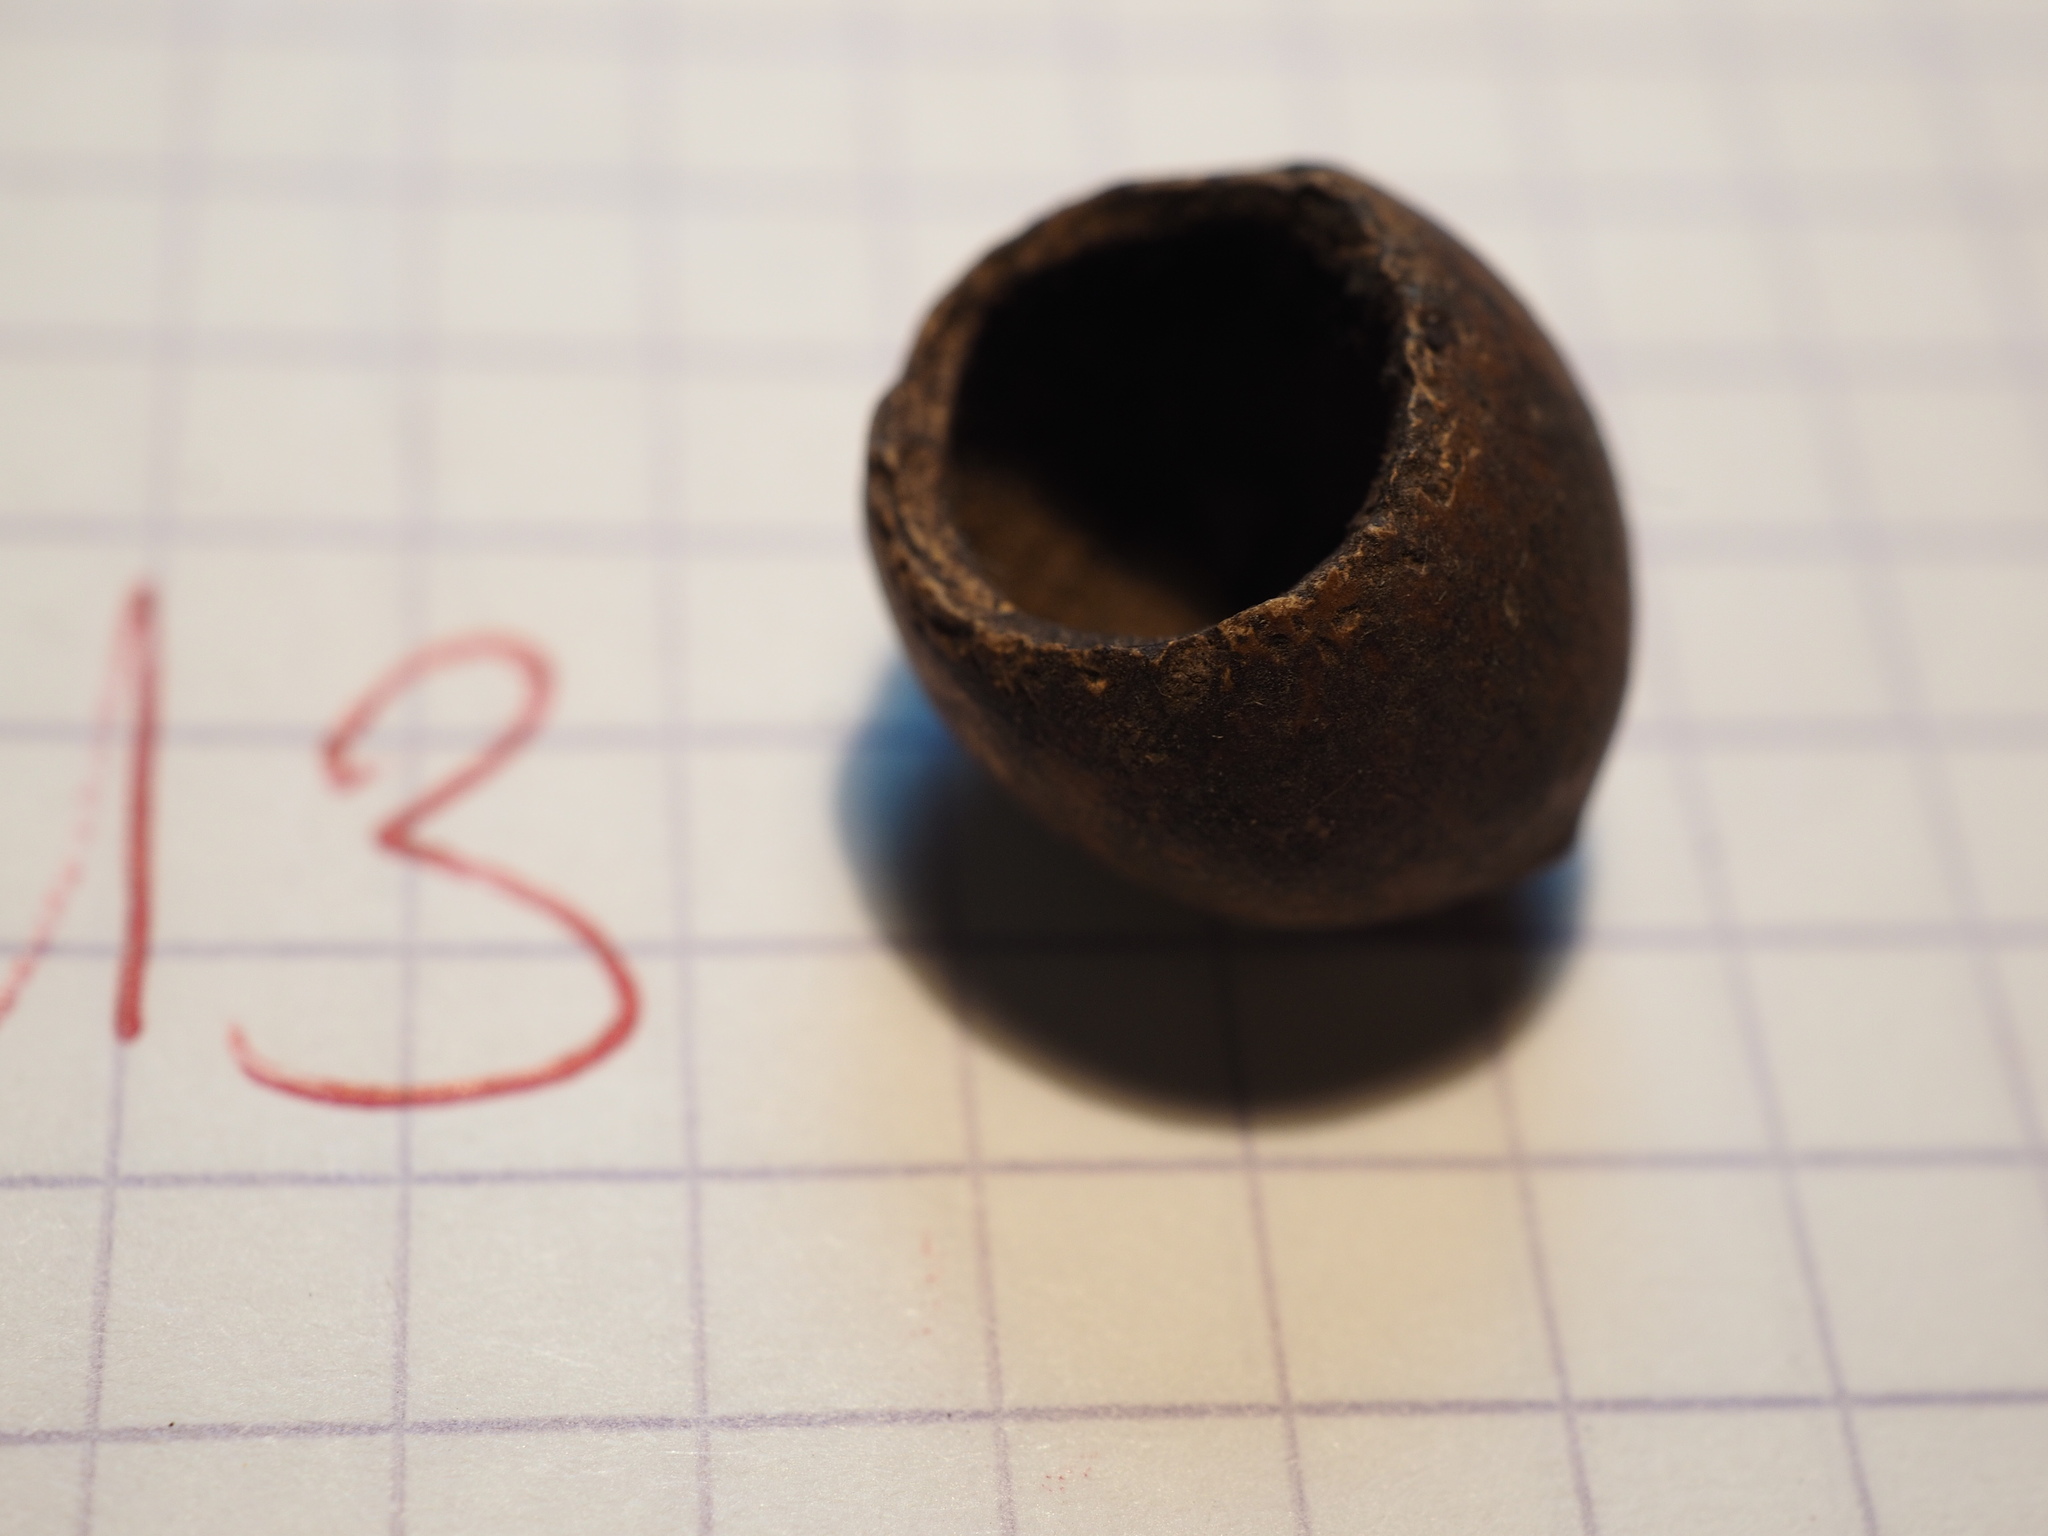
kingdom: Animalia
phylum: Chordata
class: Mammalia
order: Rodentia
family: Gliridae
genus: Muscardinus
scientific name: Muscardinus avellanarius
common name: Hazel dormouse
